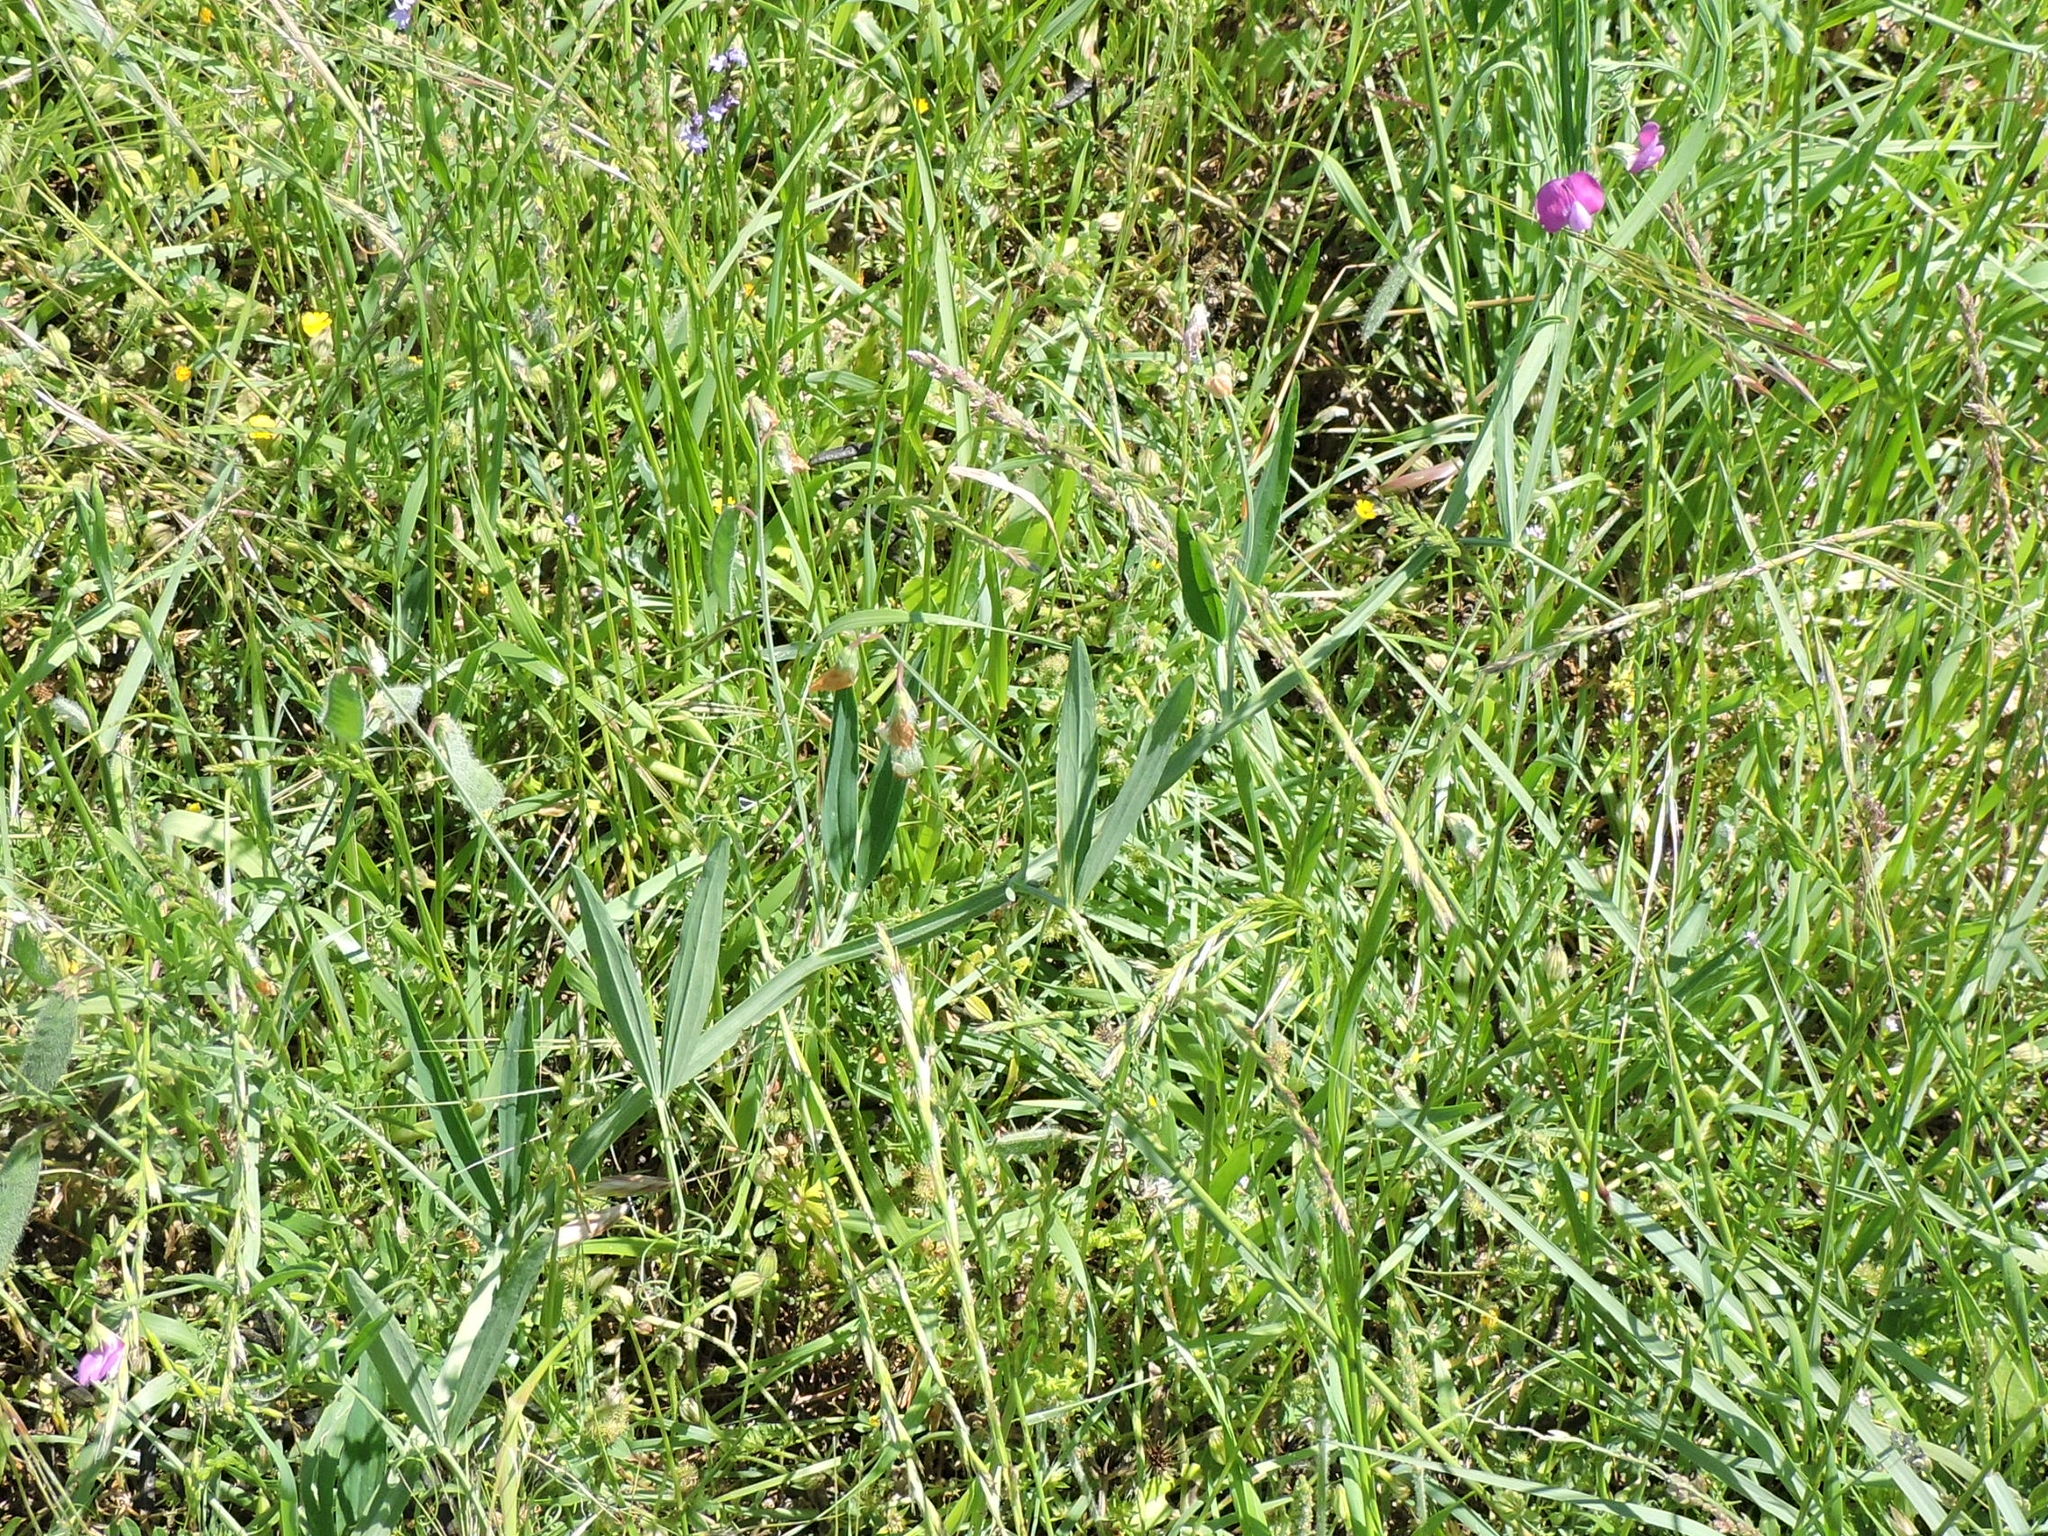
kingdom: Plantae
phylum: Tracheophyta
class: Magnoliopsida
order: Fabales
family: Fabaceae
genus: Lathyrus
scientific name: Lathyrus hirsutus
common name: Hairy vetchling
